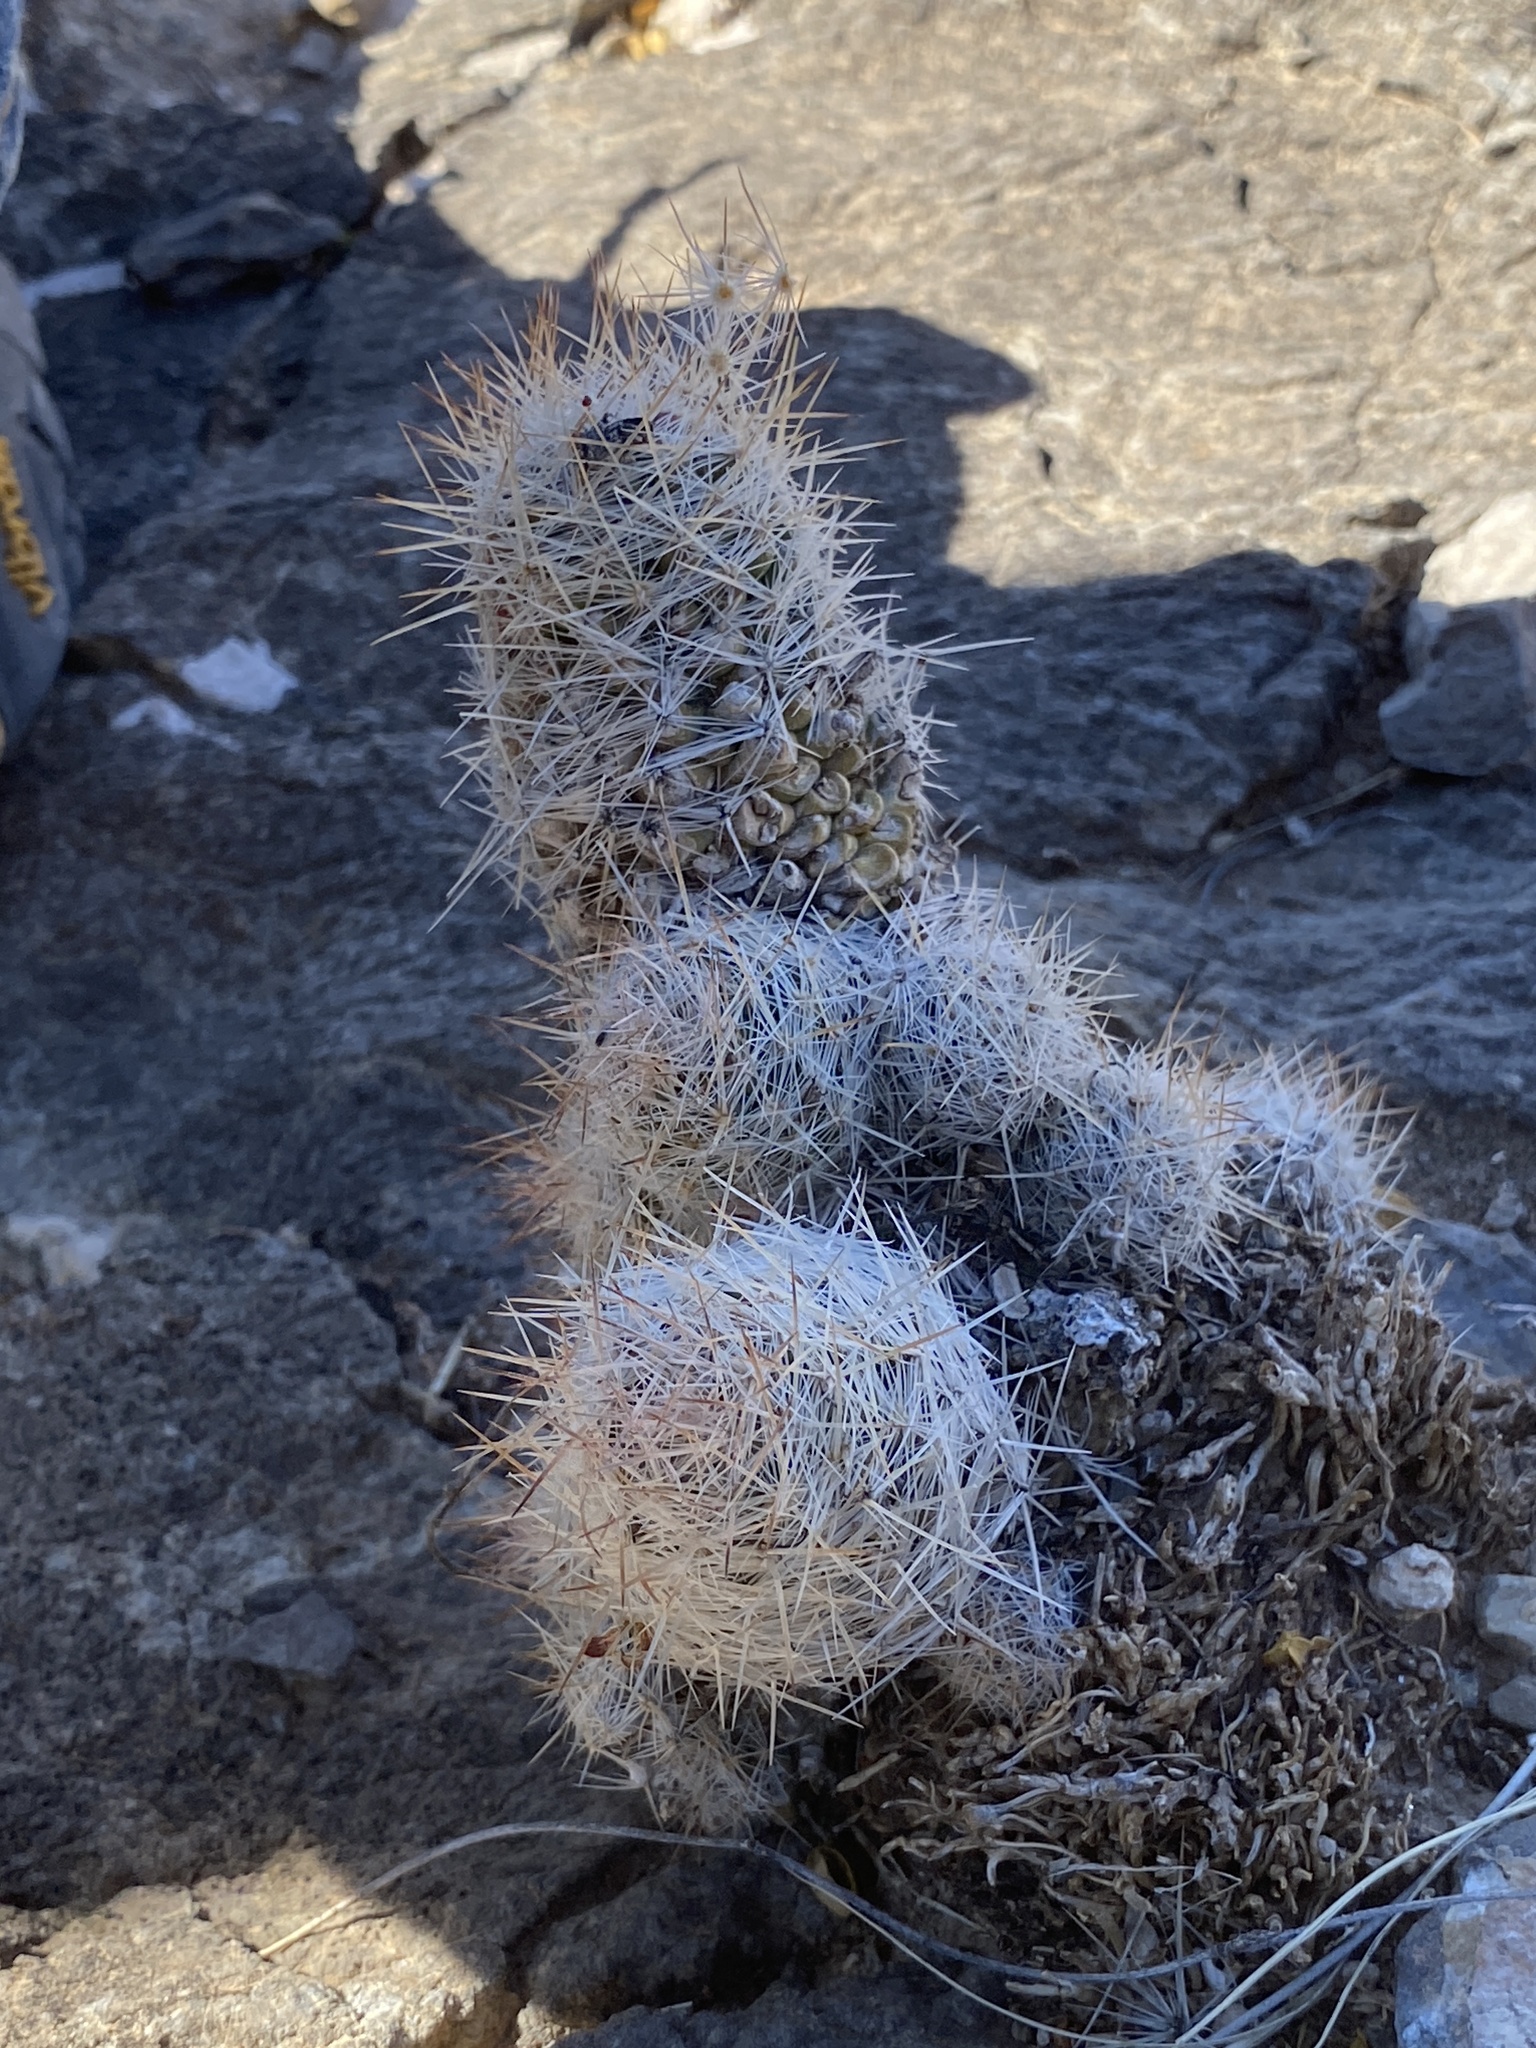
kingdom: Plantae
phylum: Tracheophyta
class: Magnoliopsida
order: Caryophyllales
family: Cactaceae
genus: Pelecyphora
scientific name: Pelecyphora tuberculosa
